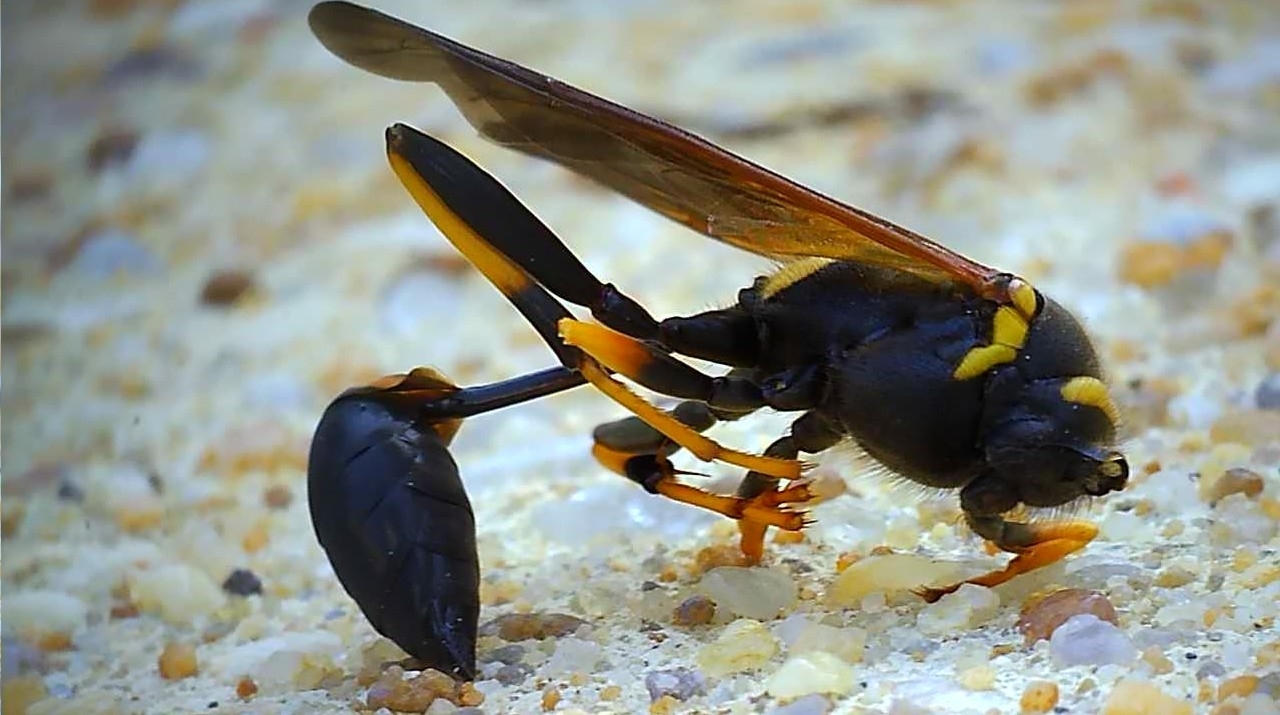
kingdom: Animalia
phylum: Arthropoda
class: Insecta
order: Hymenoptera
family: Sphecidae
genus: Sceliphron
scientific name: Sceliphron caementarium
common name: Mud dauber
